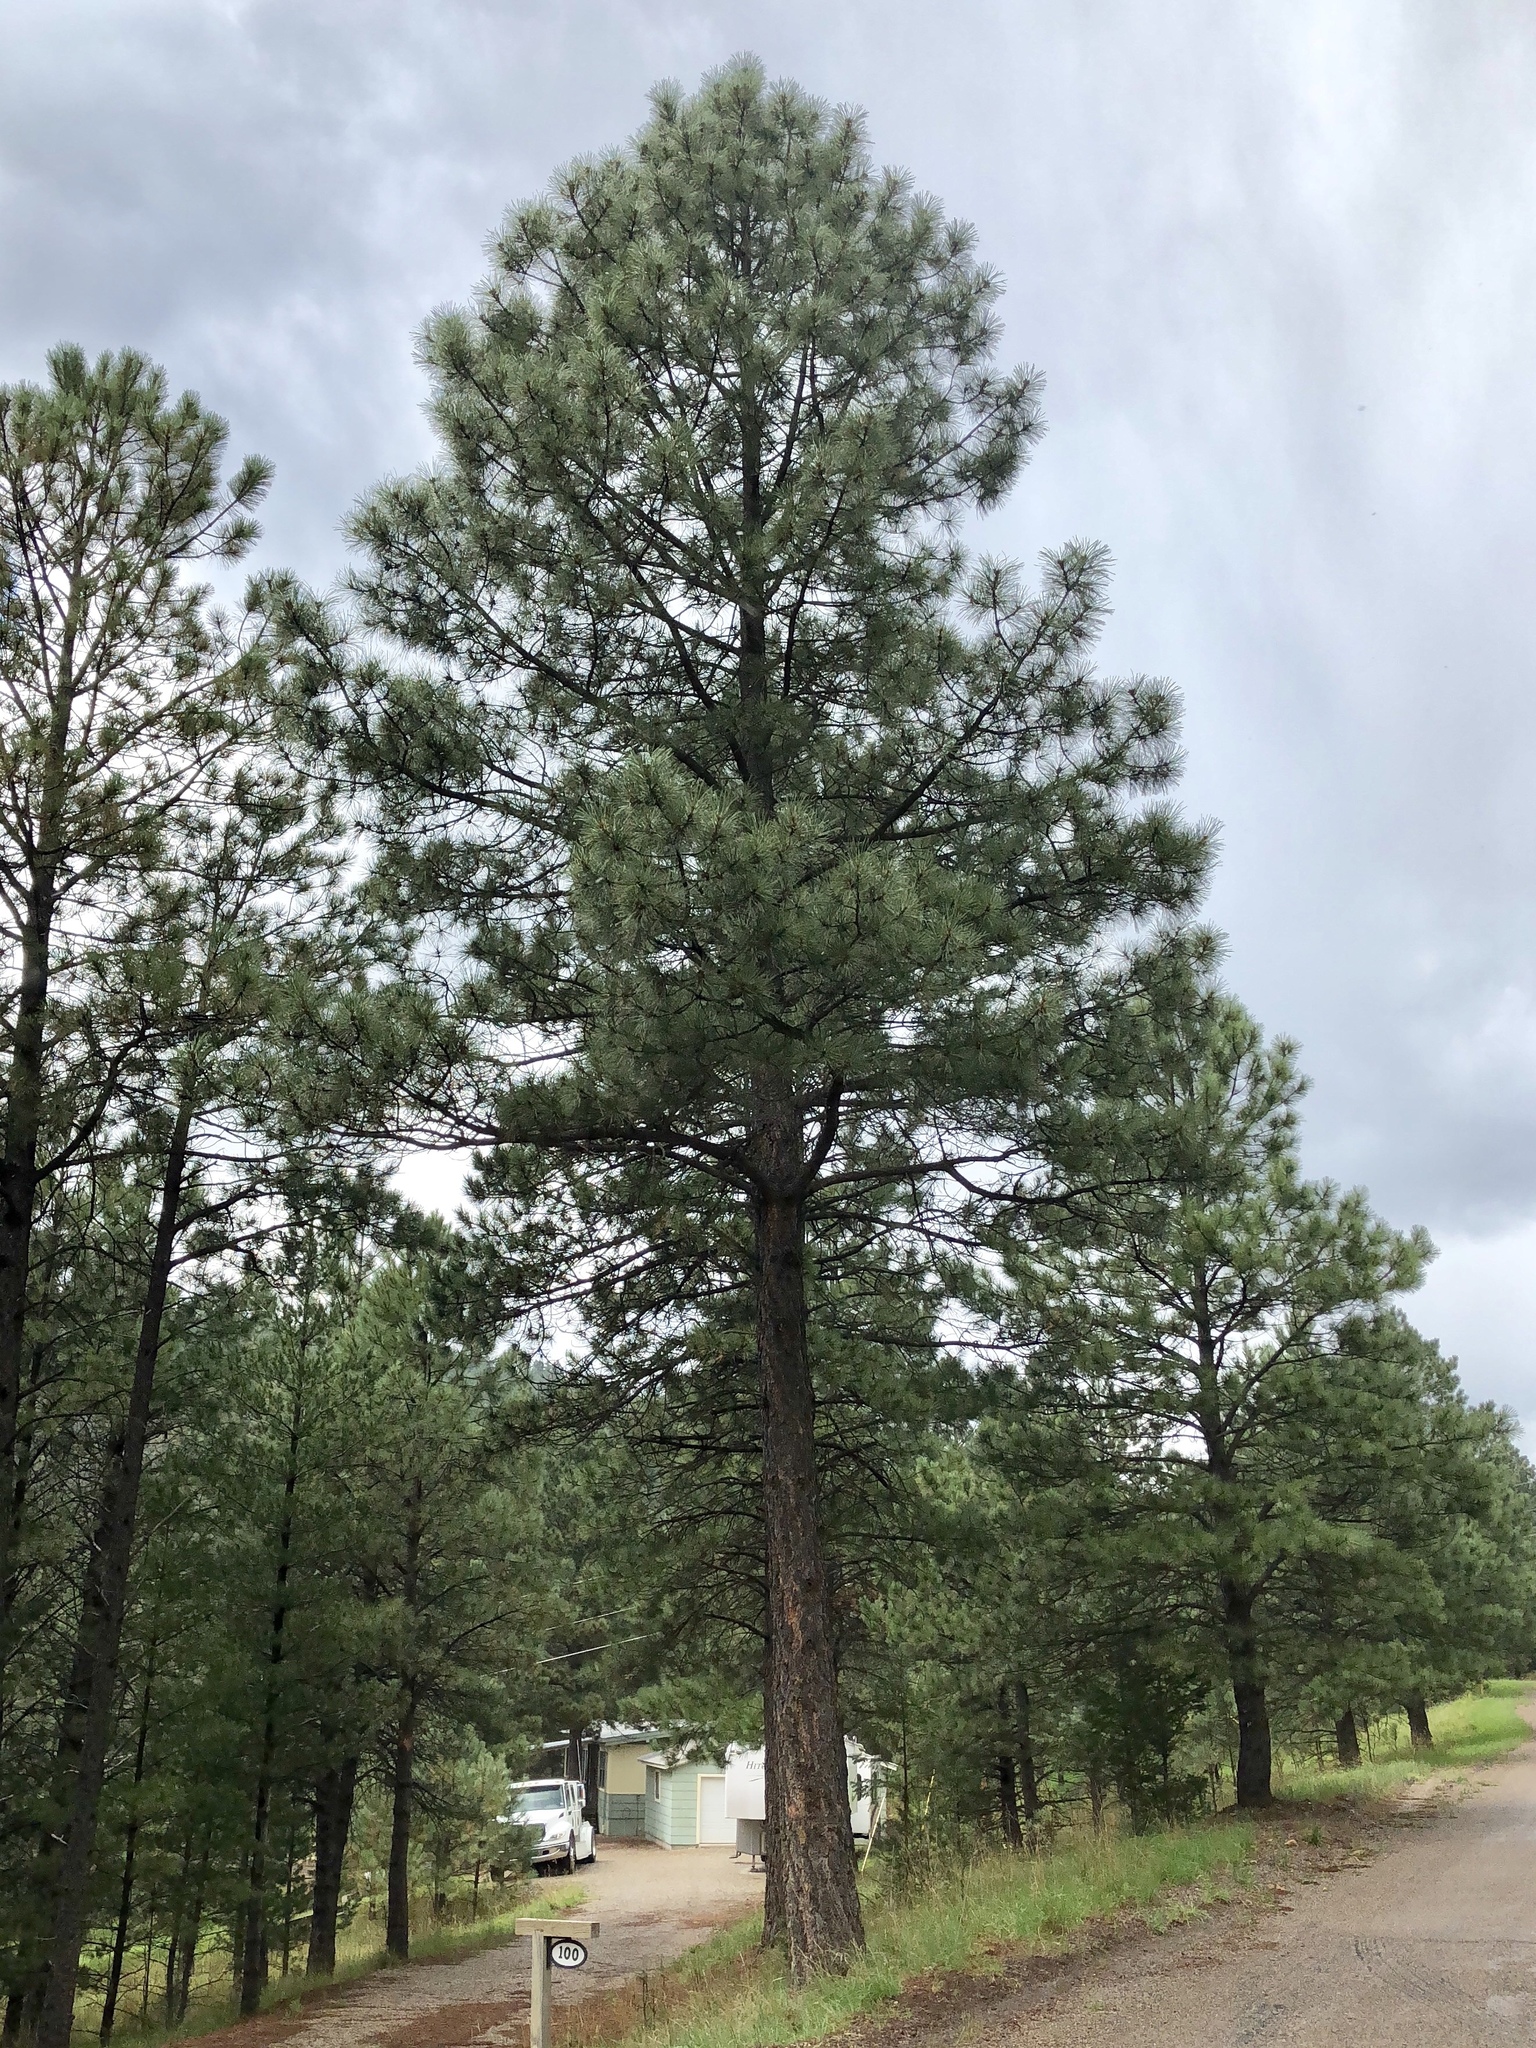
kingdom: Plantae
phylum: Tracheophyta
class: Pinopsida
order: Pinales
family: Pinaceae
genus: Pinus
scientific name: Pinus ponderosa
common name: Western yellow-pine
